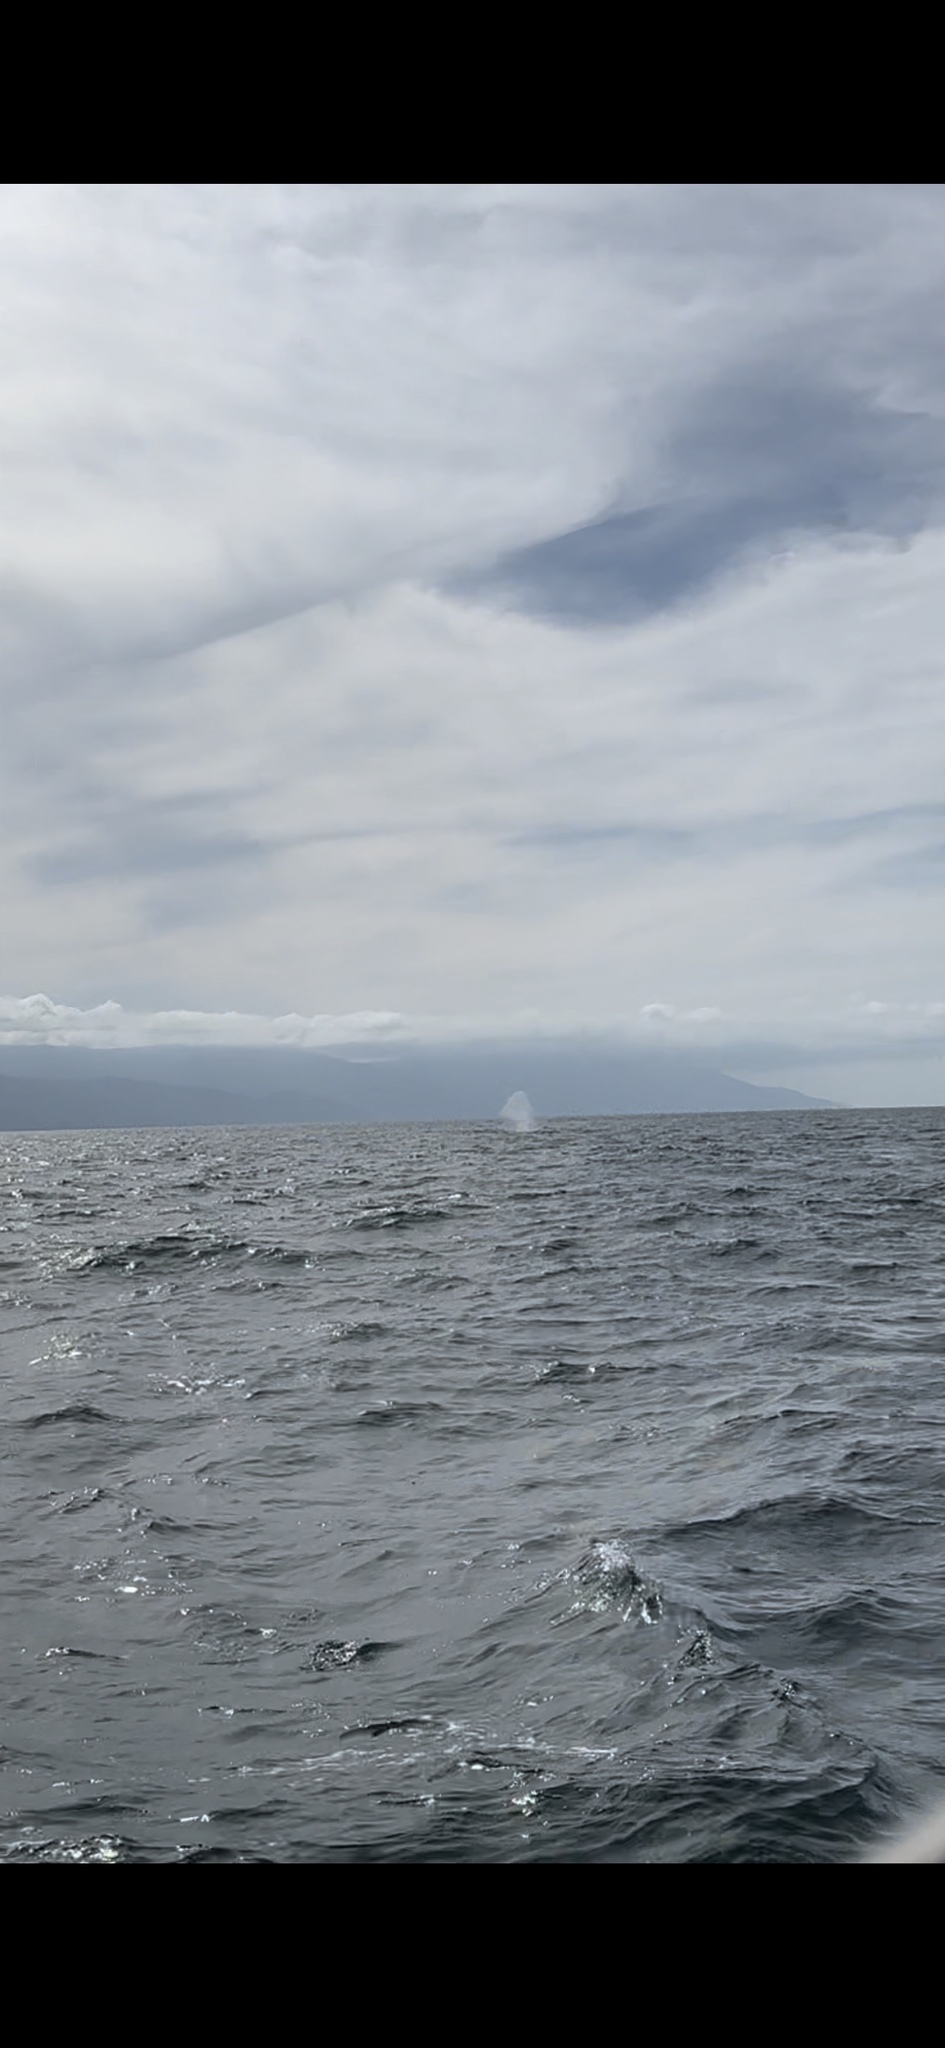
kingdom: Animalia
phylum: Chordata
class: Mammalia
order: Cetacea
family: Balaenopteridae
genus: Megaptera
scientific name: Megaptera novaeangliae
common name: Humpback whale
